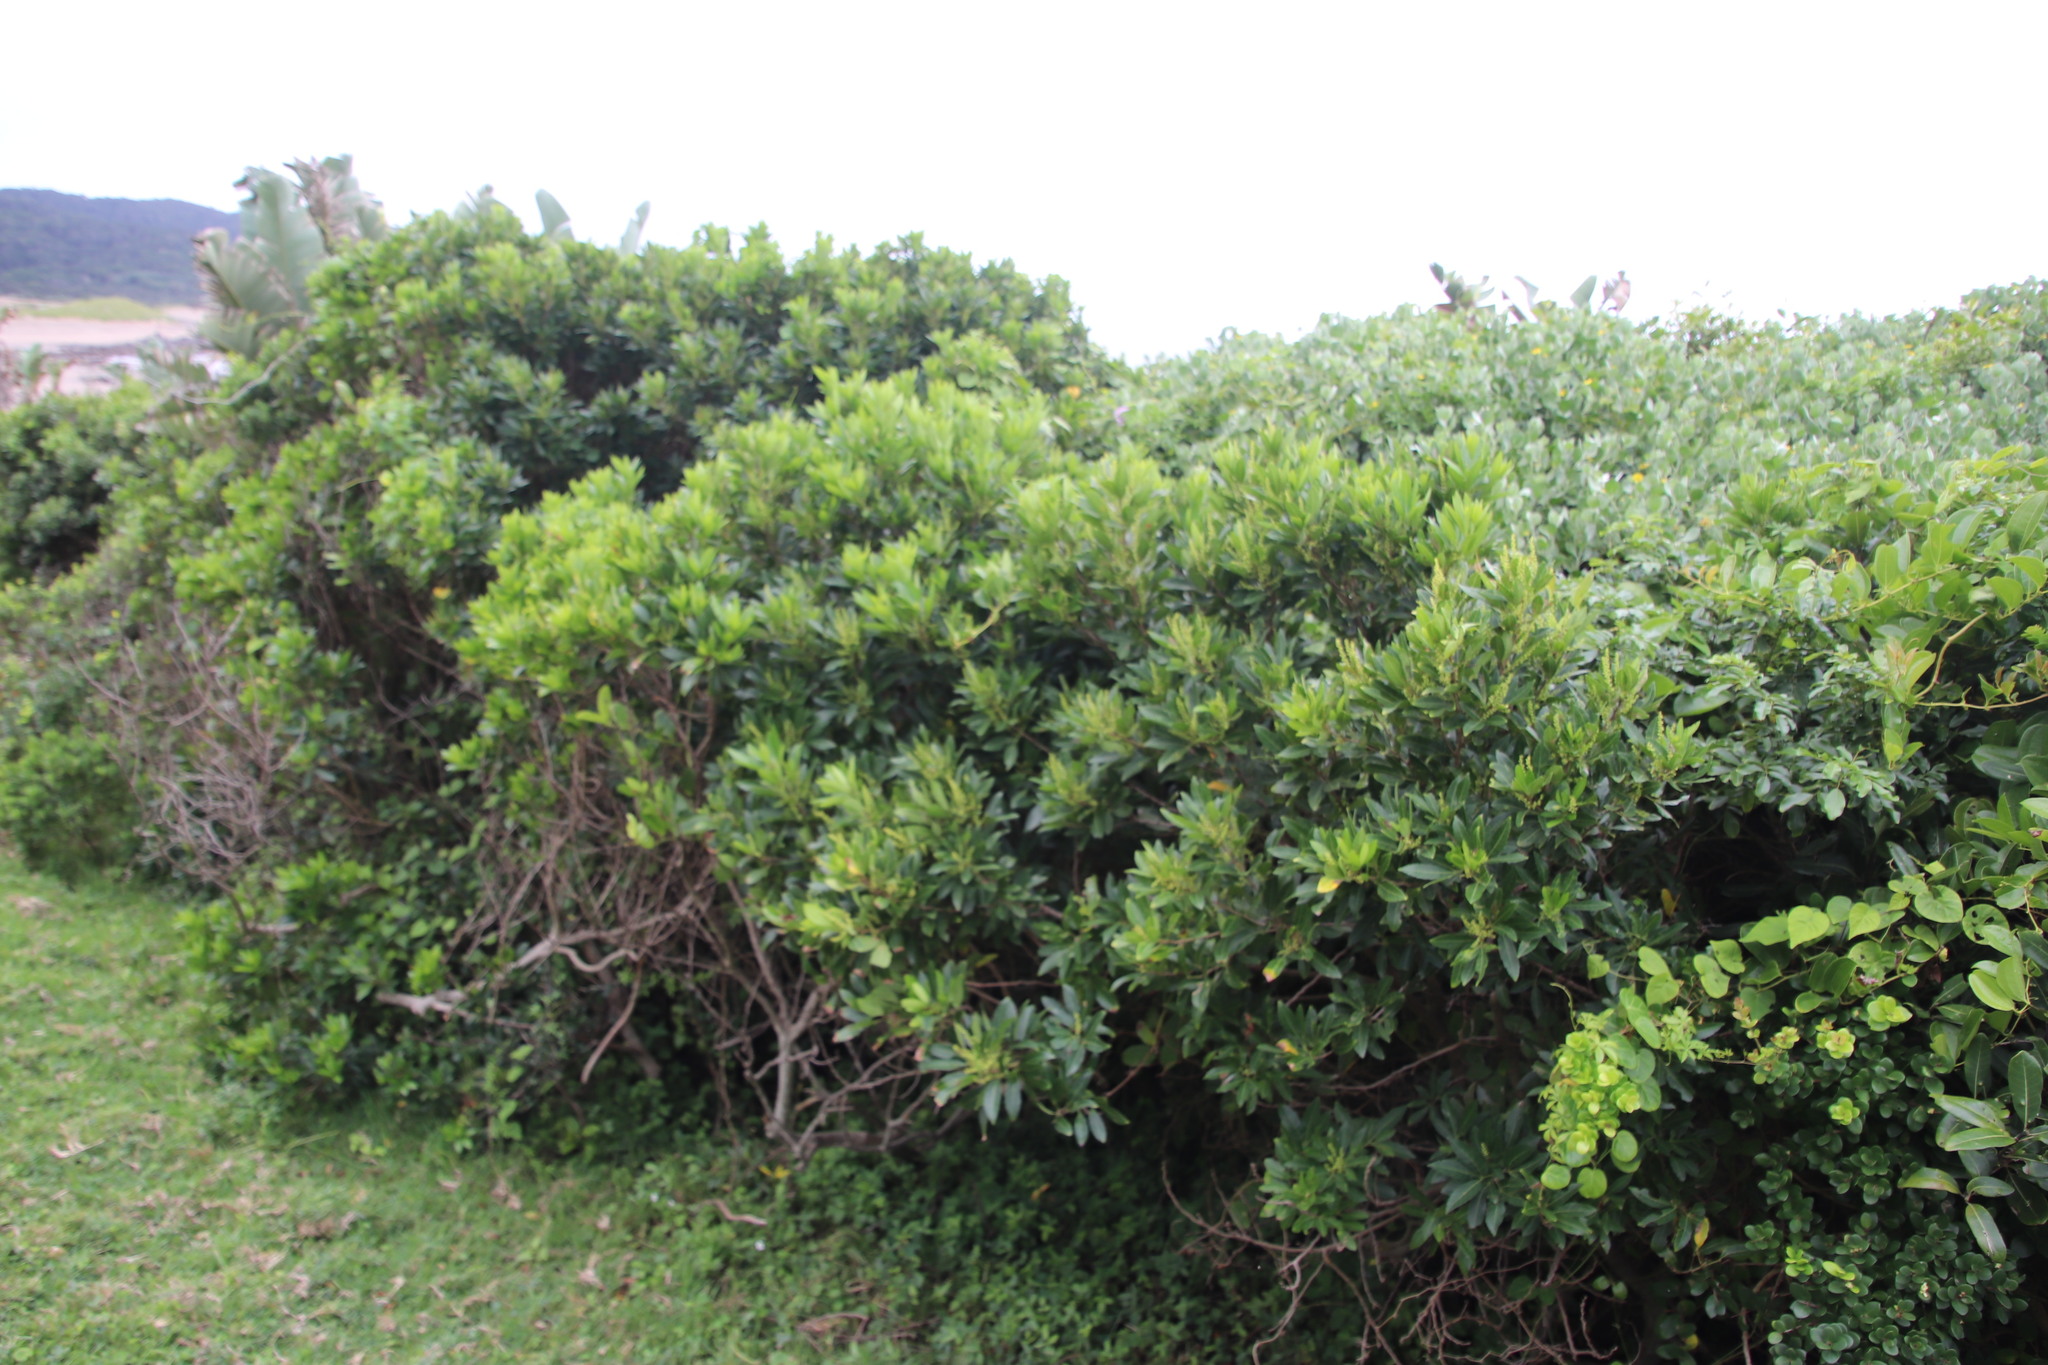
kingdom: Plantae
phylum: Tracheophyta
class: Magnoliopsida
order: Sapindales
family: Sapindaceae
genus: Allophylus
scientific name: Allophylus natalensis
